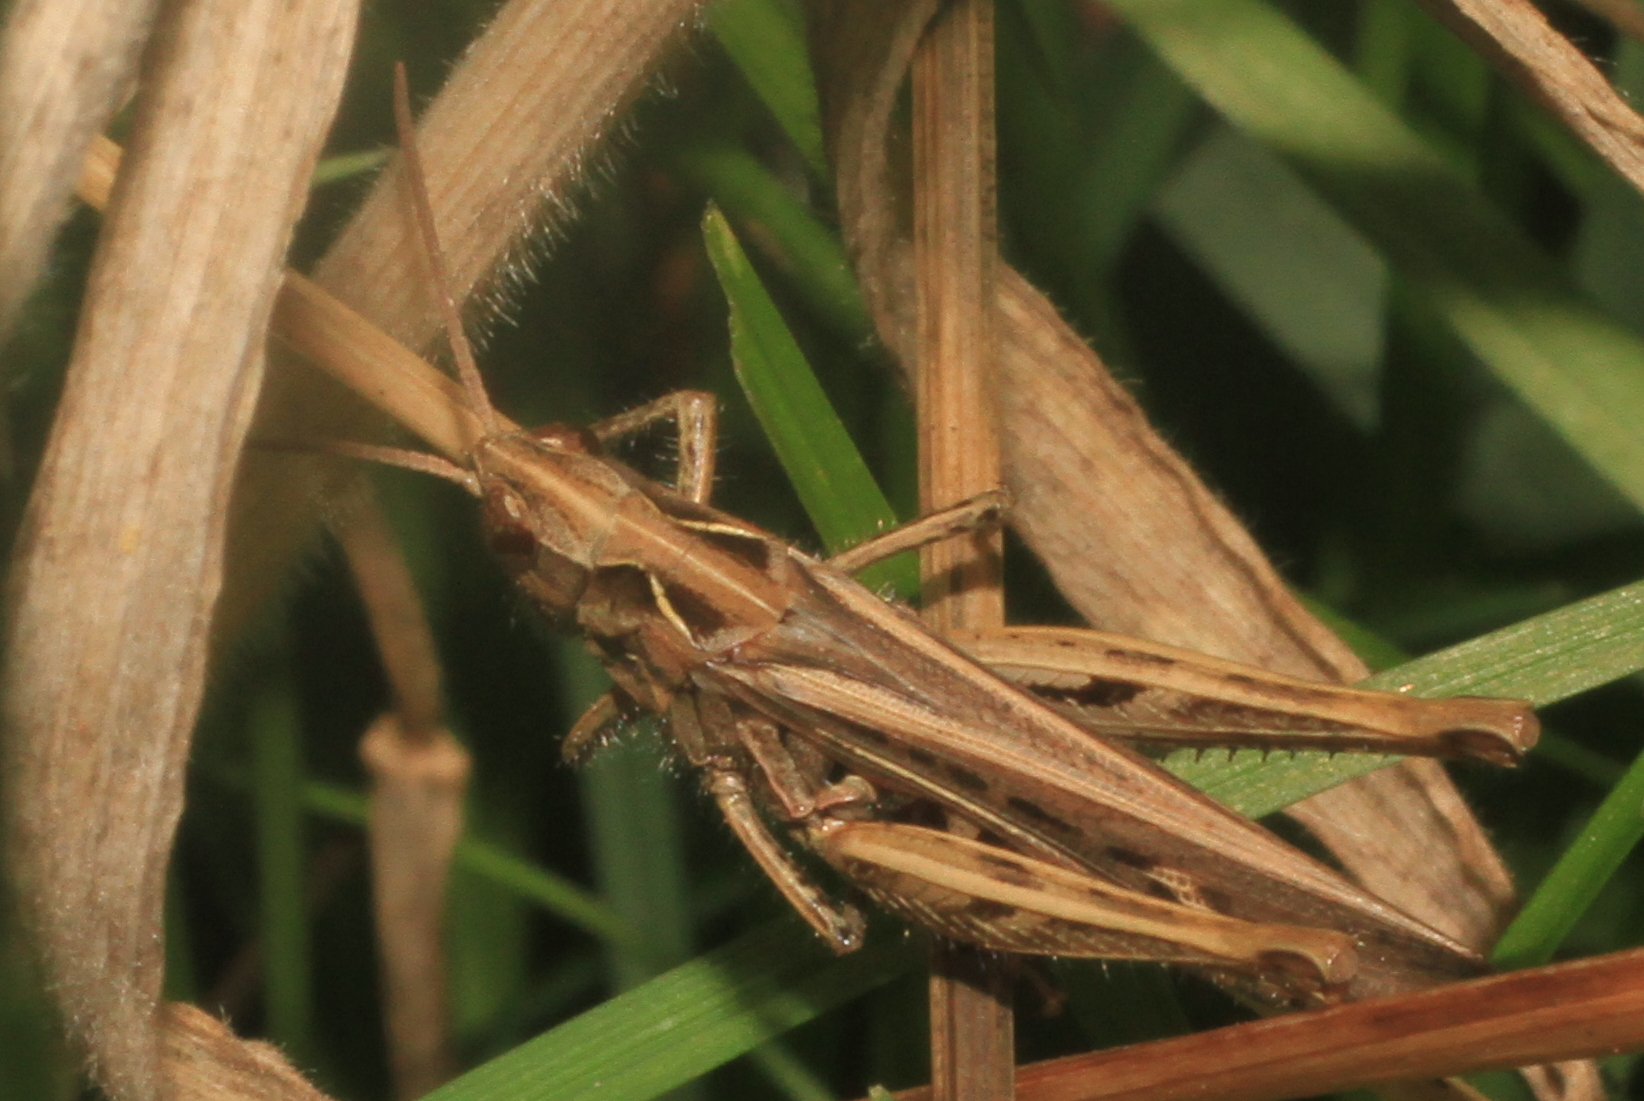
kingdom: Animalia
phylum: Arthropoda
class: Insecta
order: Orthoptera
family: Acrididae
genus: Chorthippus
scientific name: Chorthippus brunneus
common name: Field grasshopper
